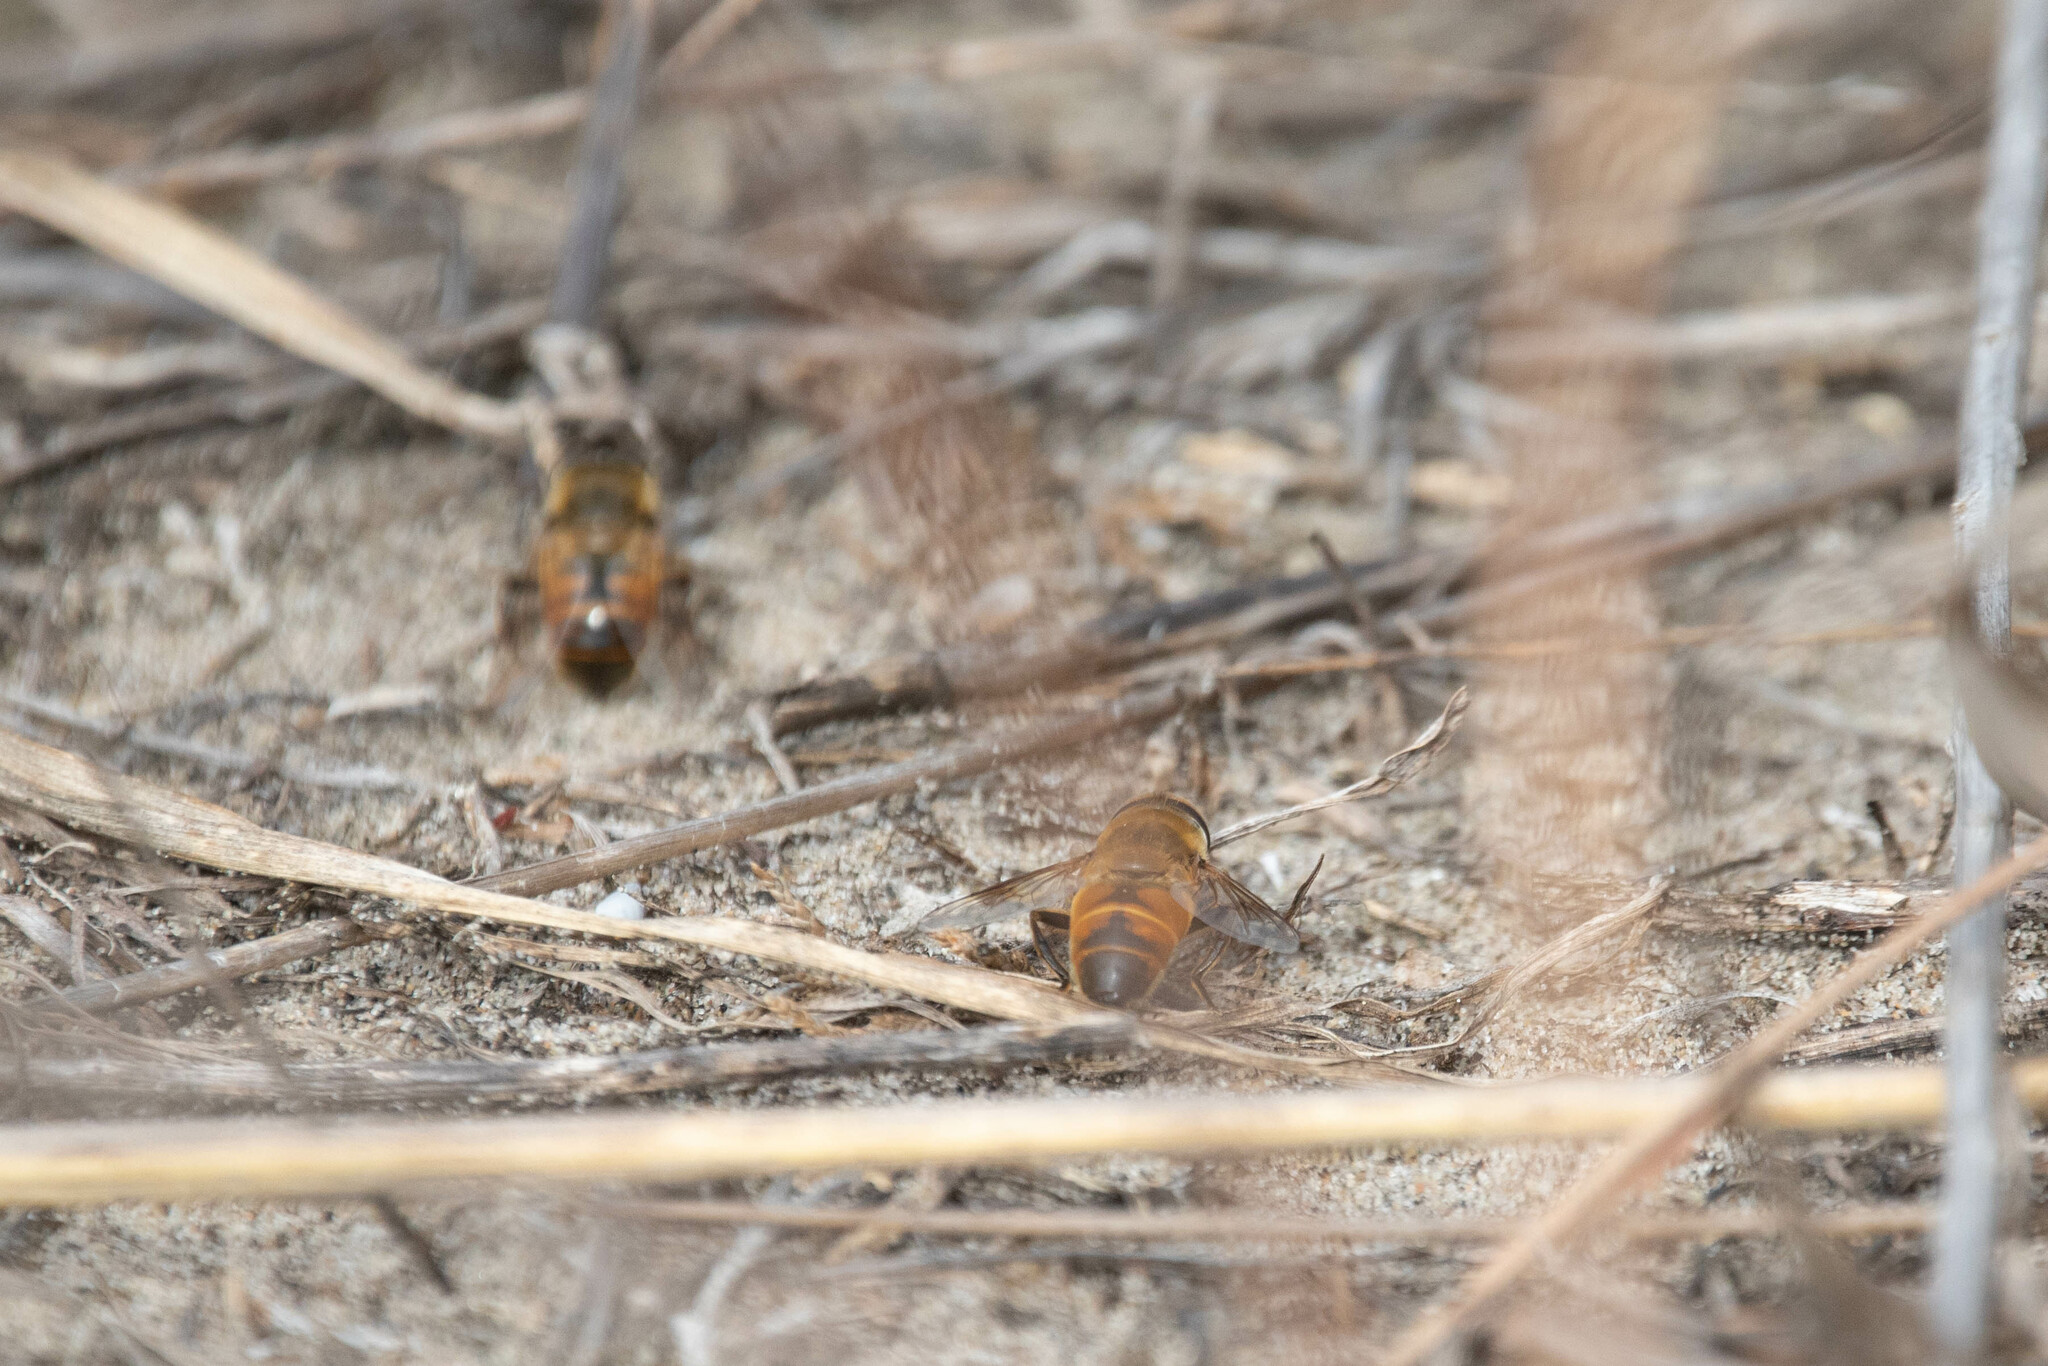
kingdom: Animalia
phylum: Arthropoda
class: Insecta
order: Diptera
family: Syrphidae
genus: Eristalis
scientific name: Eristalis tenax
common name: Drone fly
